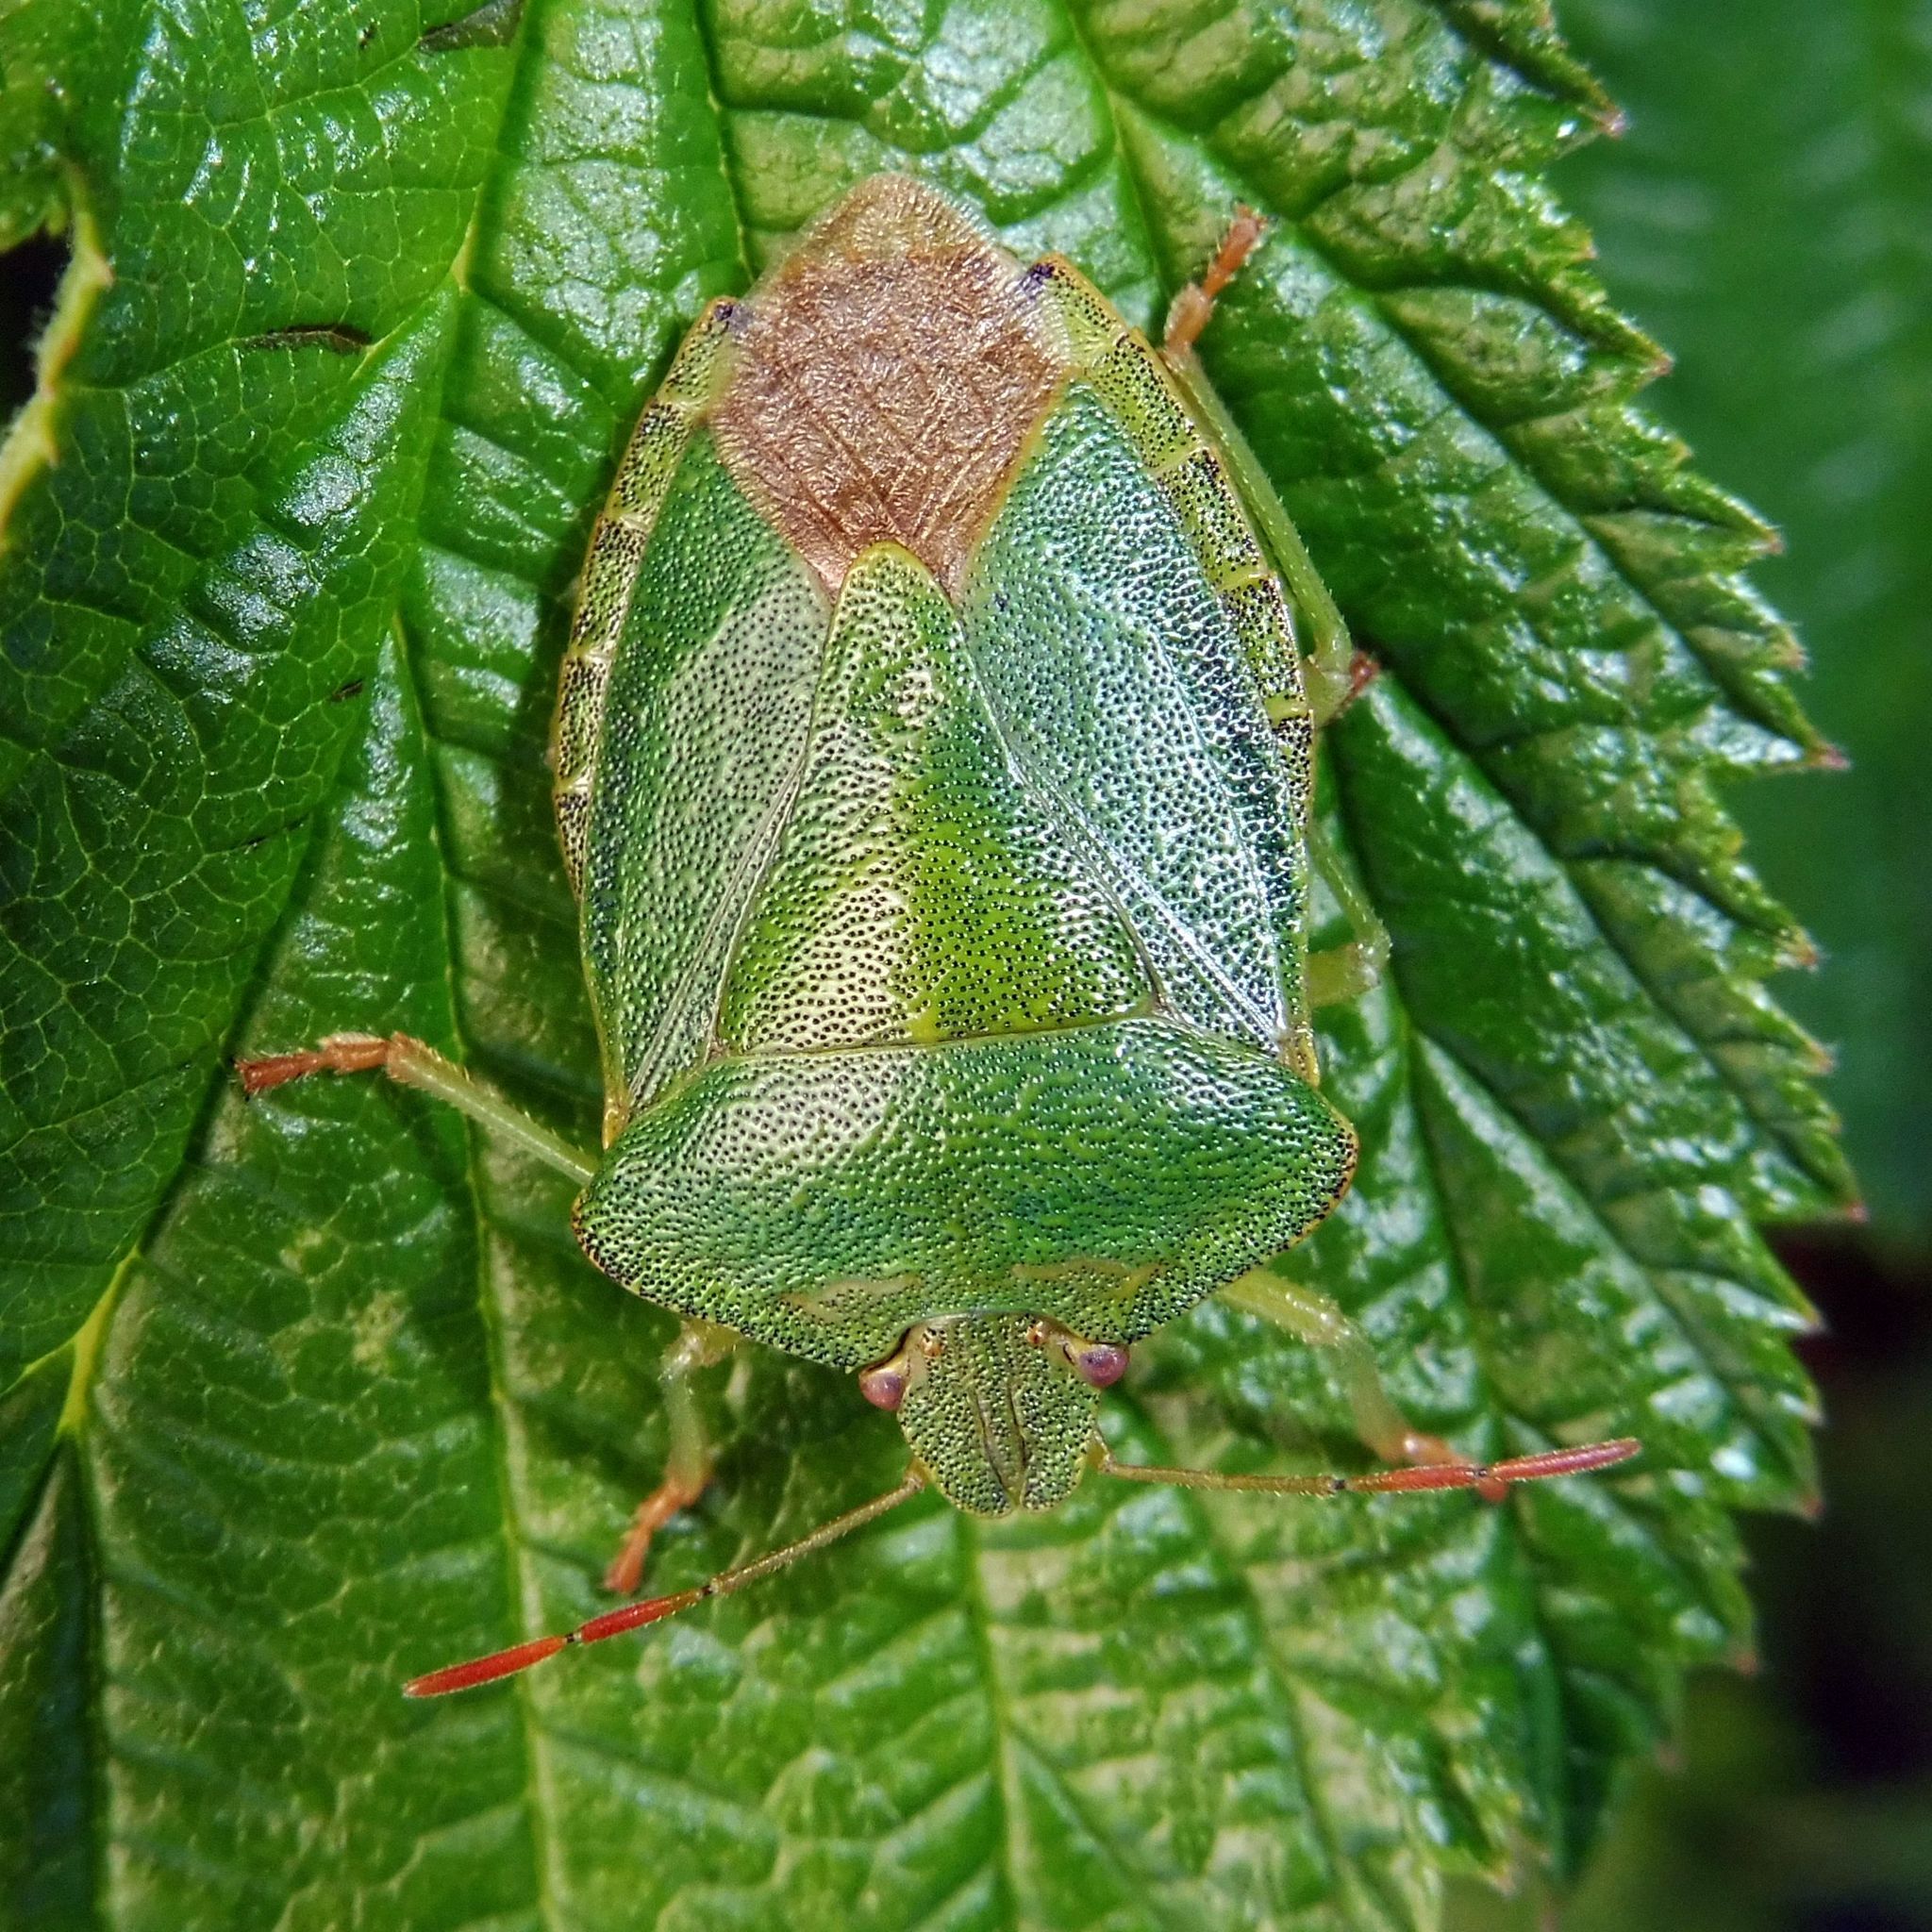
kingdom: Animalia
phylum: Arthropoda
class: Insecta
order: Hemiptera
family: Pentatomidae
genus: Palomena
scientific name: Palomena prasina
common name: Green shieldbug
